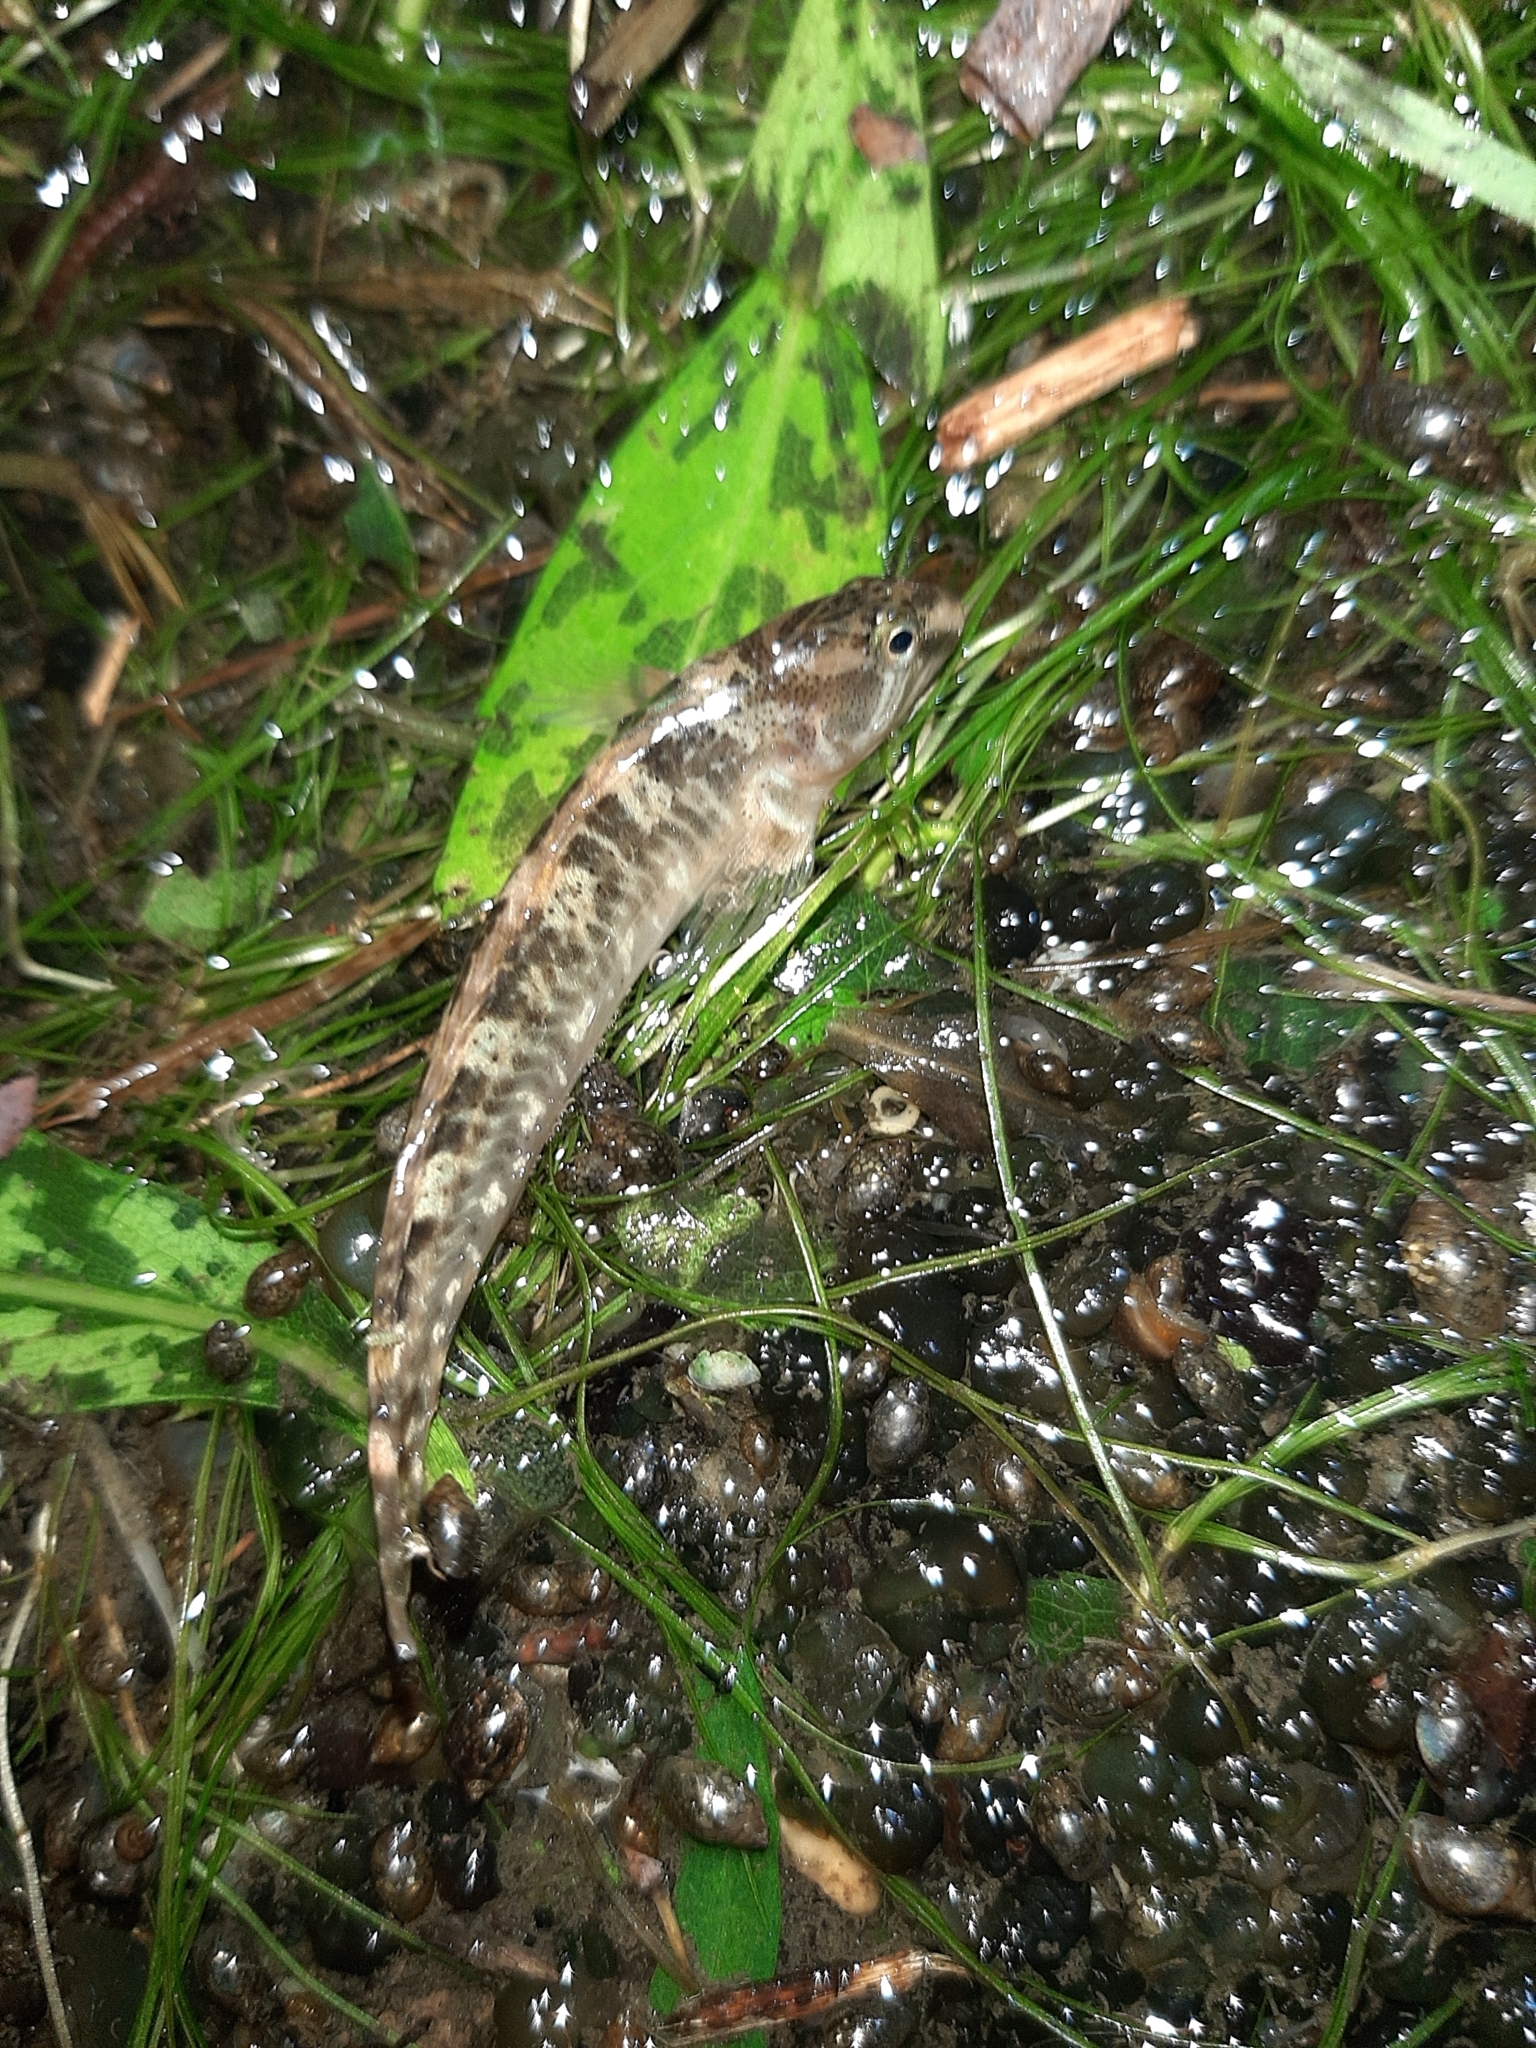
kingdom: Animalia
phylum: Chordata
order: Perciformes
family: Blenniidae
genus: Salaria
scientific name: Salaria fluviatilis
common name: Freshwater blenny
